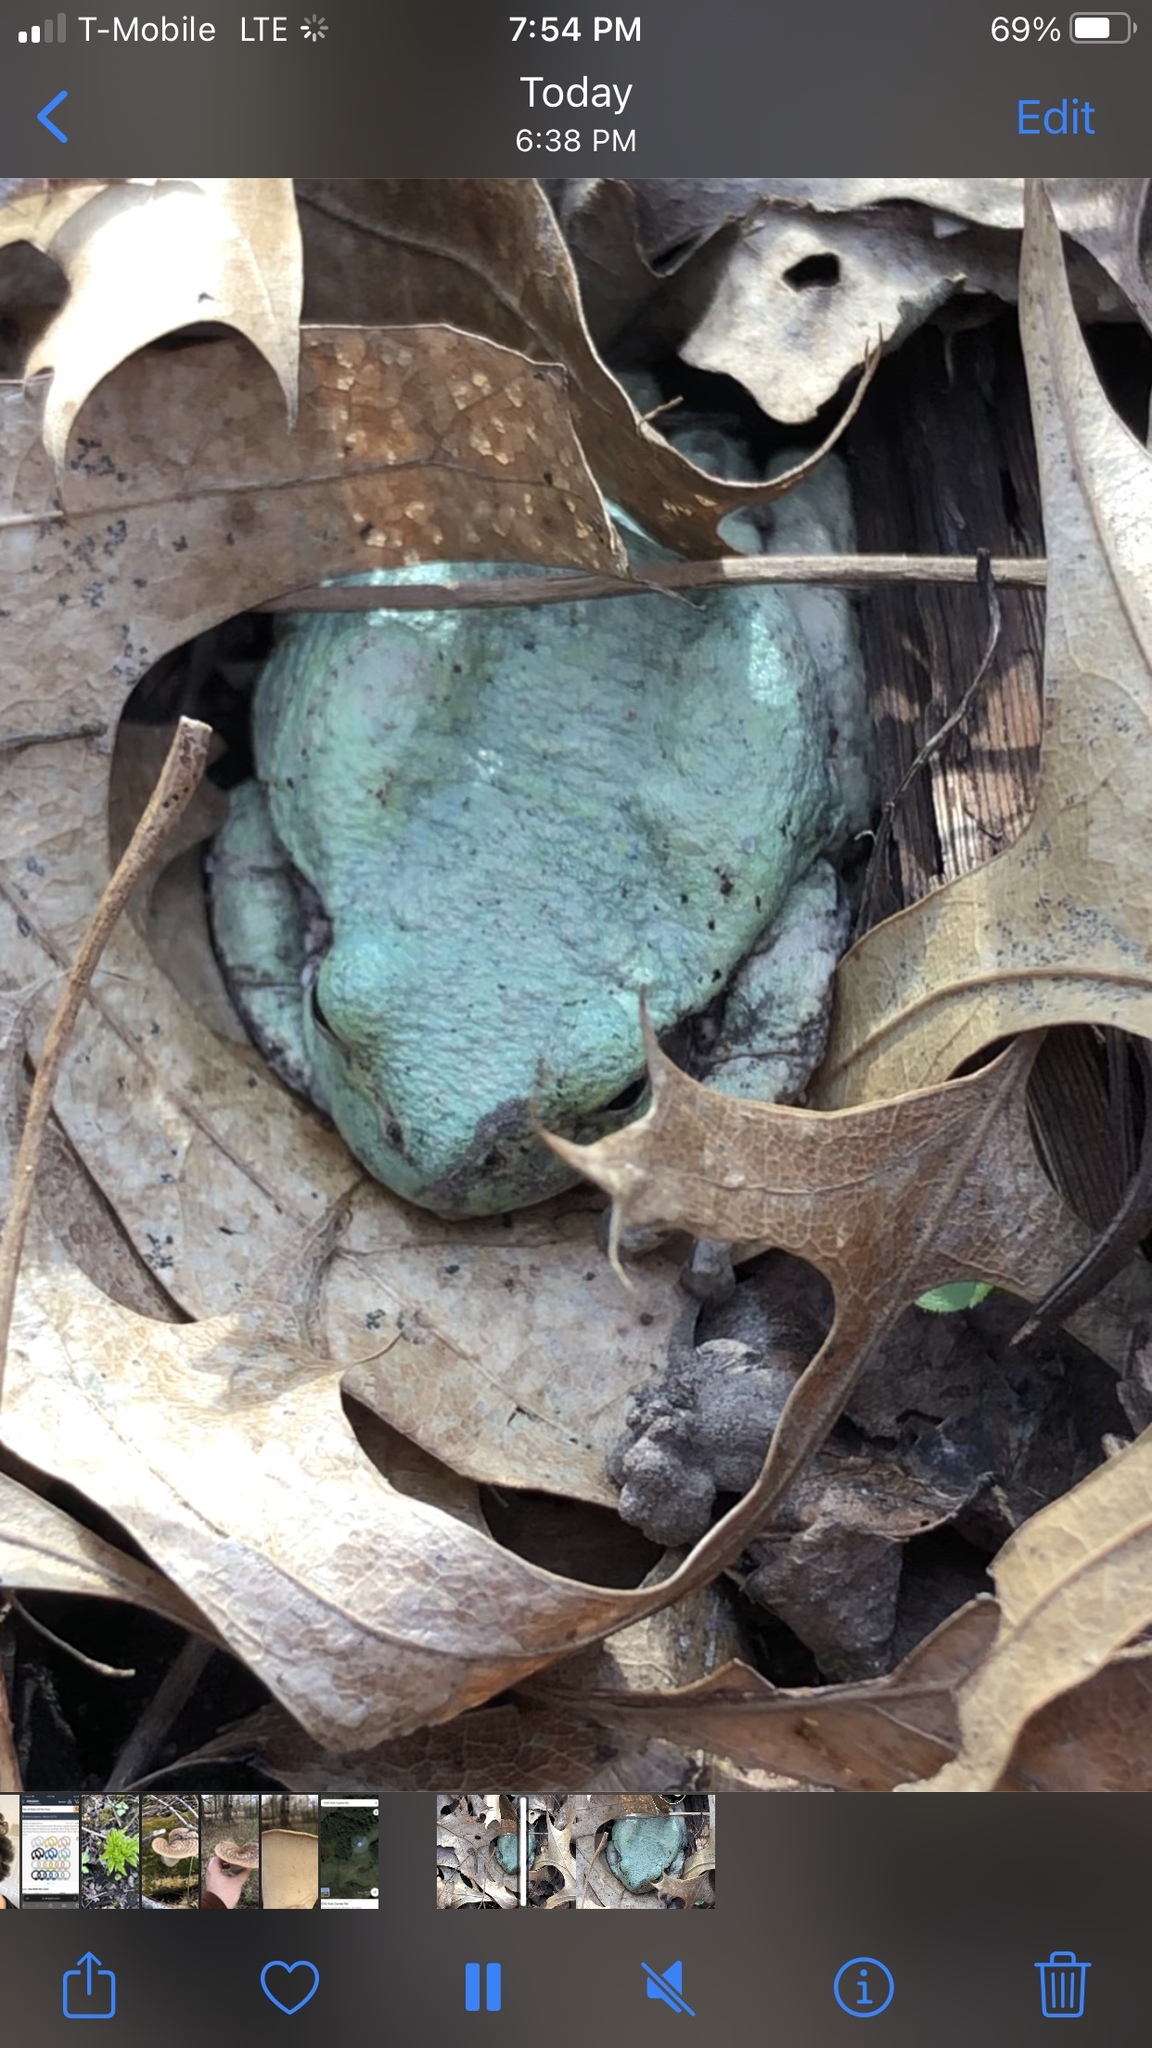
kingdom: Animalia
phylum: Chordata
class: Amphibia
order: Anura
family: Hylidae
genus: Hyla
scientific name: Hyla
